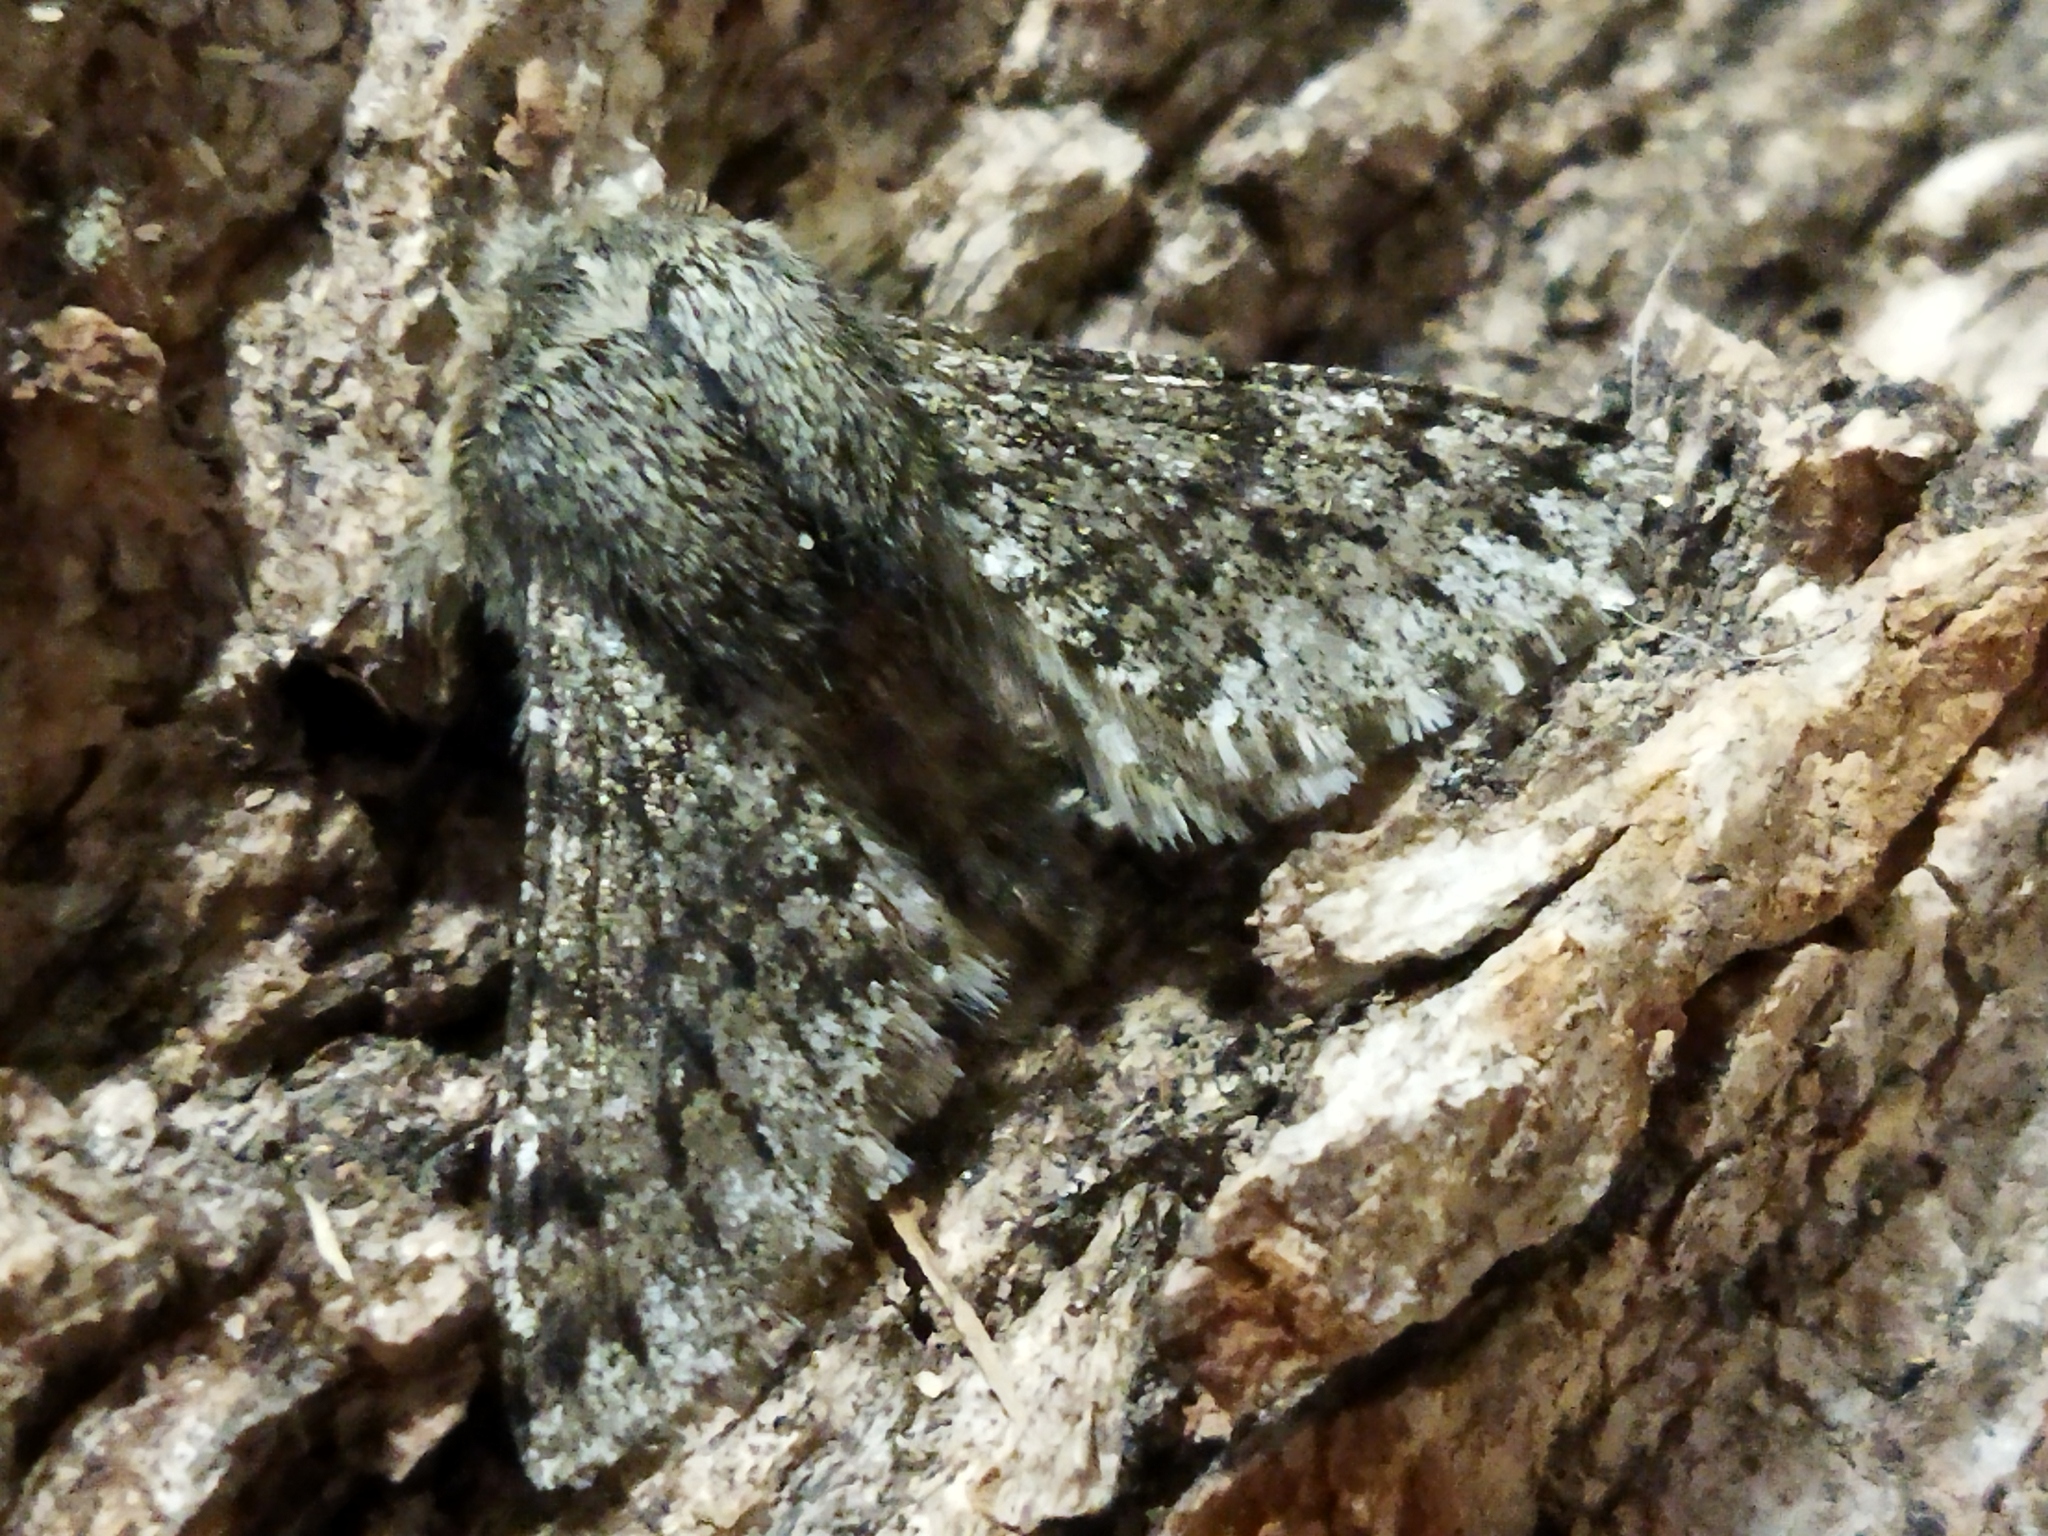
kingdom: Animalia
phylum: Arthropoda
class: Insecta
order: Lepidoptera
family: Geometridae
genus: Apocheima
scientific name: Apocheima hispidaria
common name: Small brindled beauty
